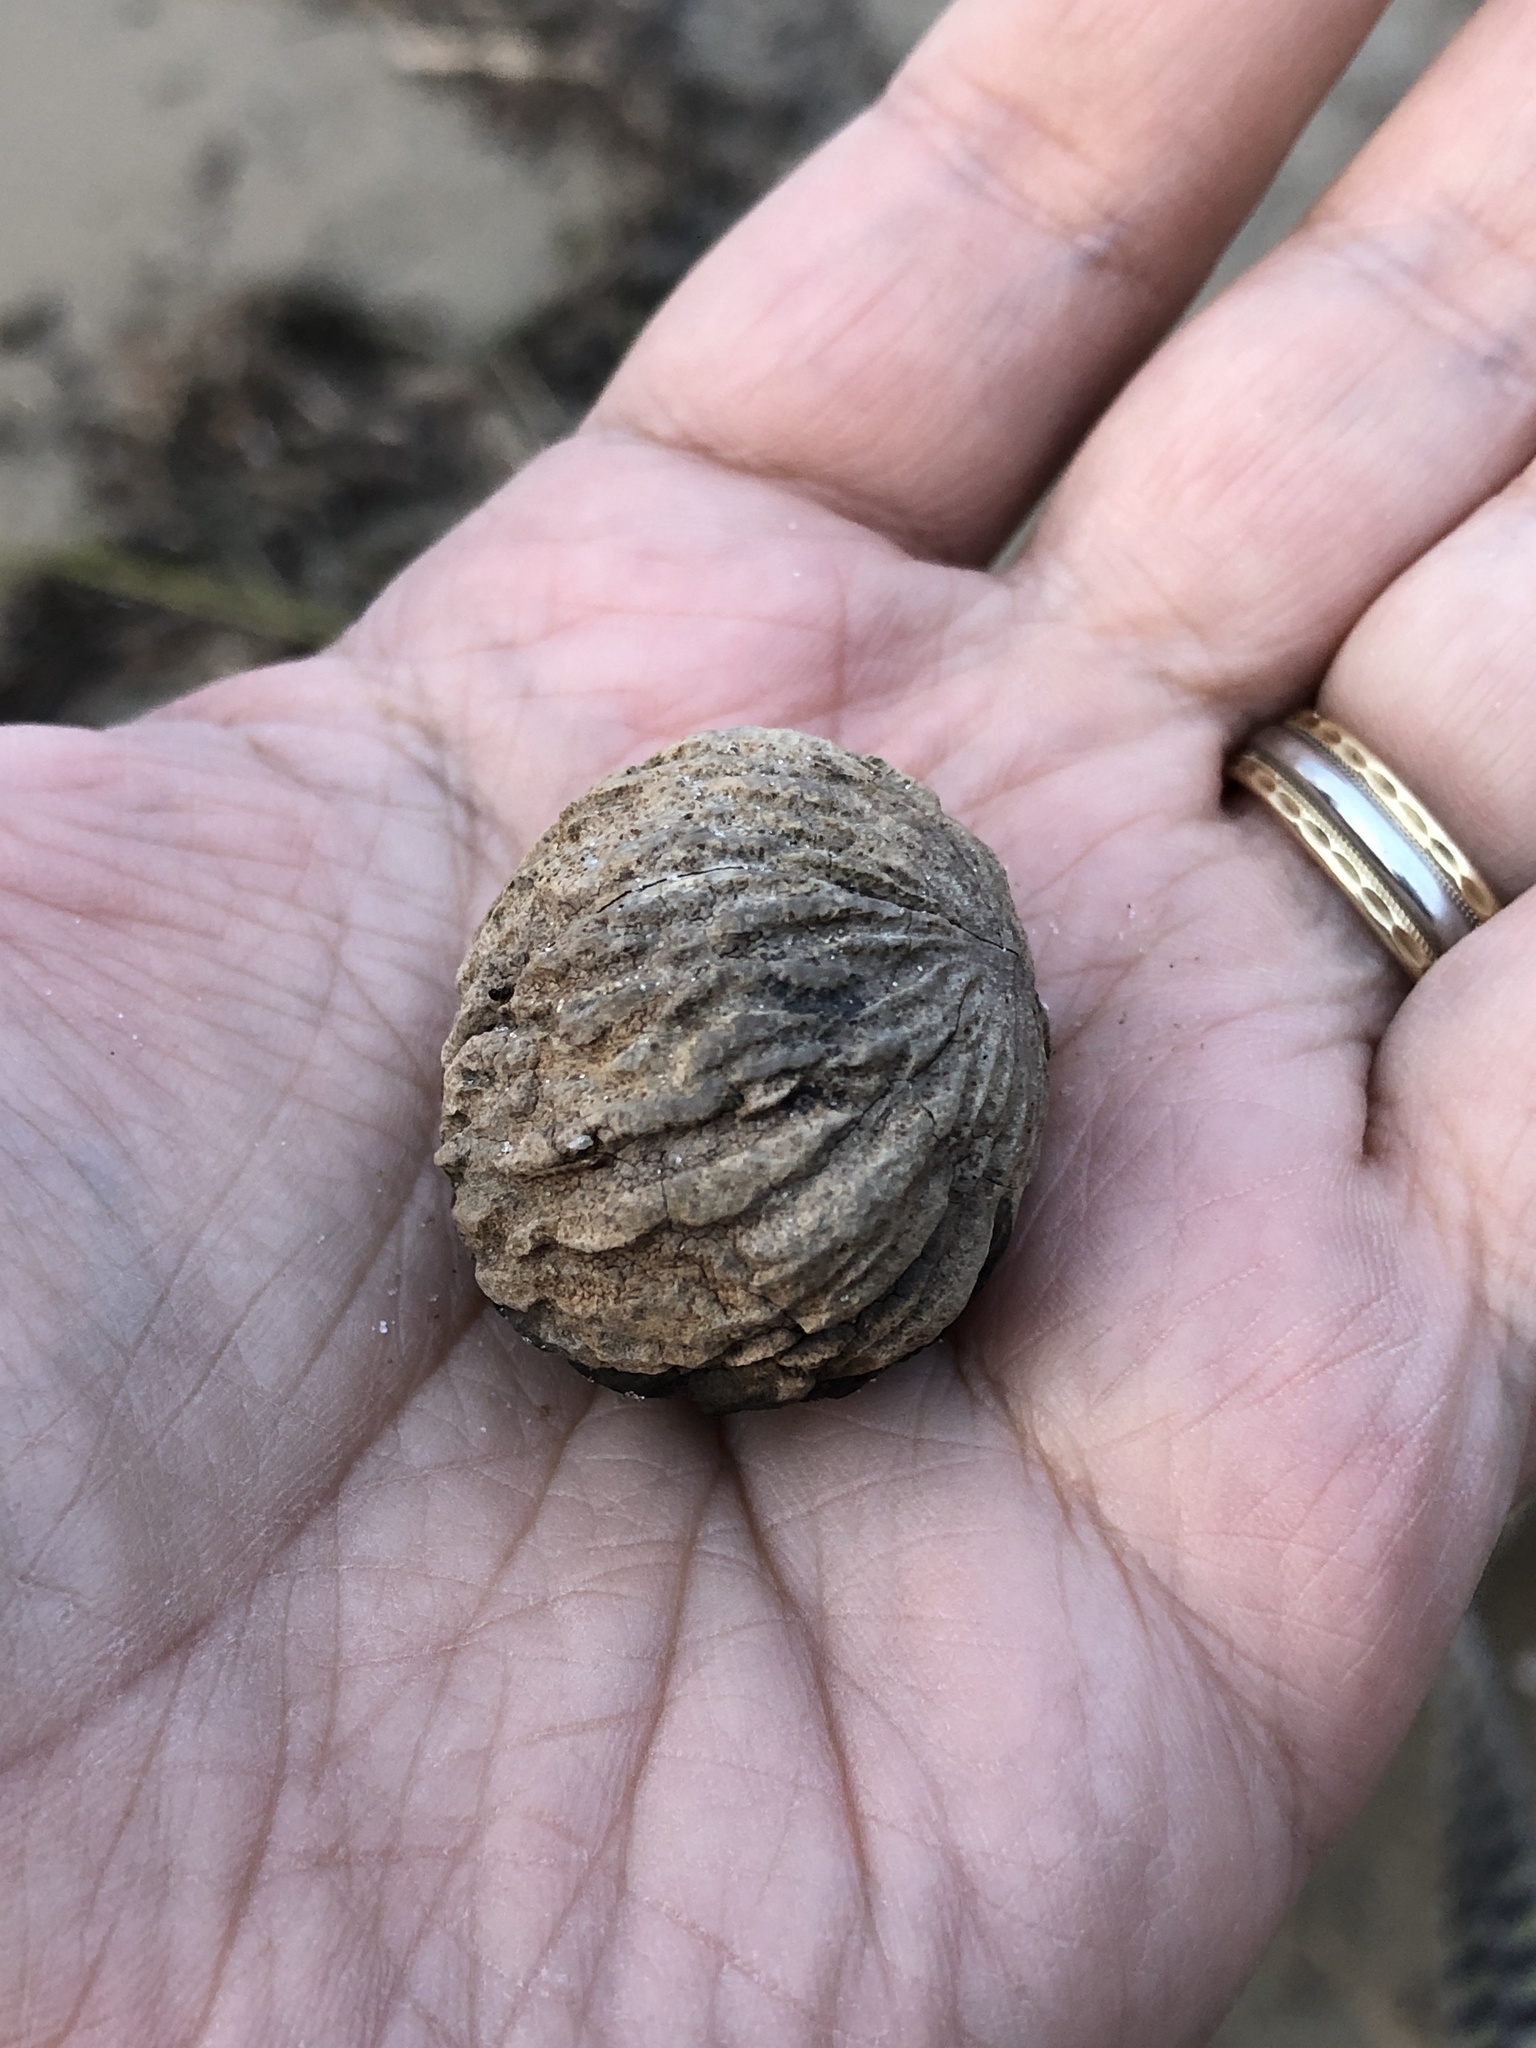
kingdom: Plantae
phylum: Tracheophyta
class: Magnoliopsida
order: Fagales
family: Juglandaceae
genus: Juglans
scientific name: Juglans nigra
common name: Black walnut
